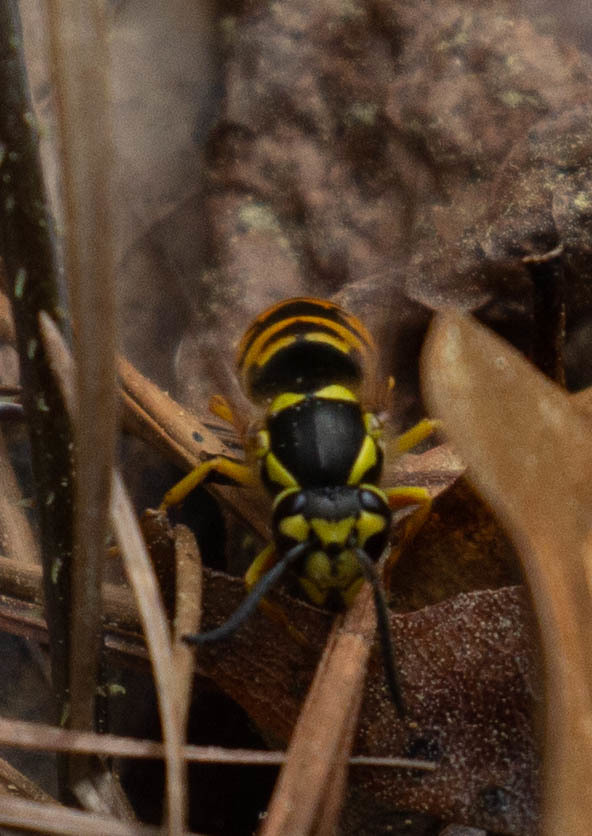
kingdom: Animalia
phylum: Arthropoda
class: Insecta
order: Hymenoptera
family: Vespidae
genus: Vespula
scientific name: Vespula maculifrons
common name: Eastern yellowjacket
